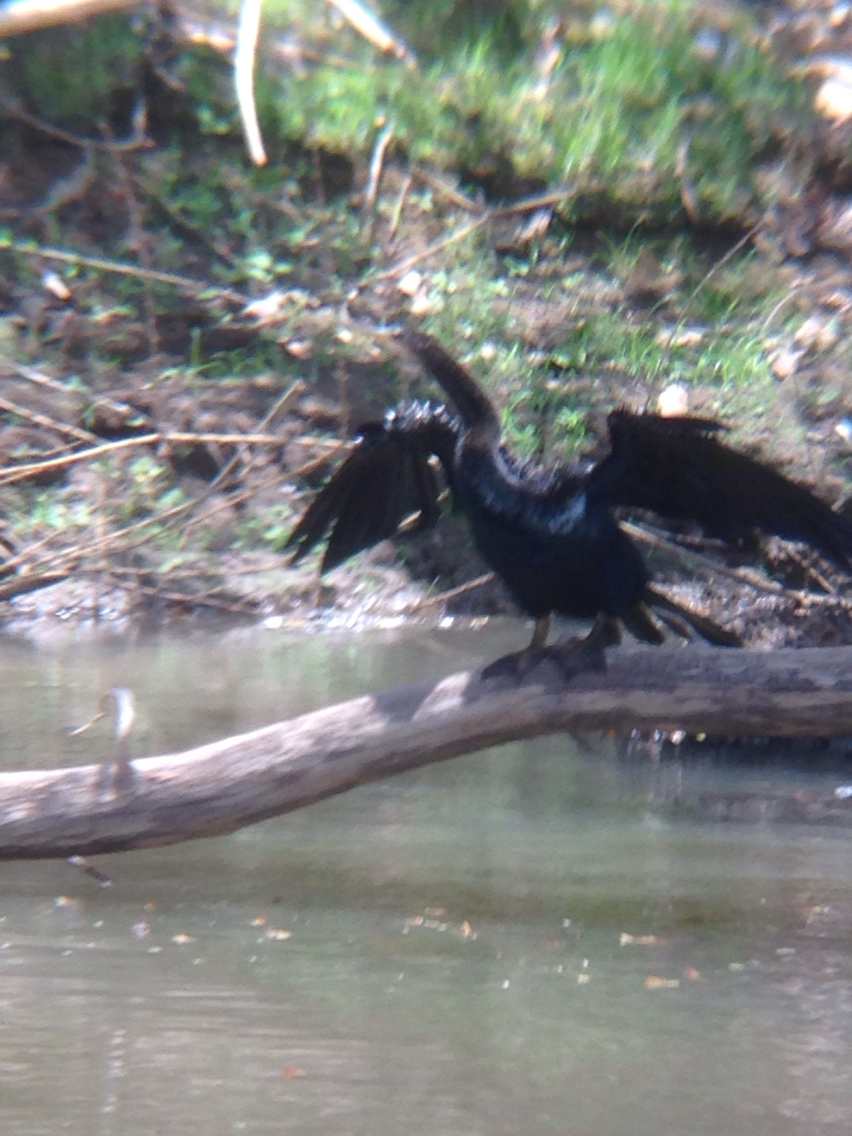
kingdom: Animalia
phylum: Chordata
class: Aves
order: Suliformes
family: Anhingidae
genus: Anhinga
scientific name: Anhinga anhinga
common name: Anhinga
